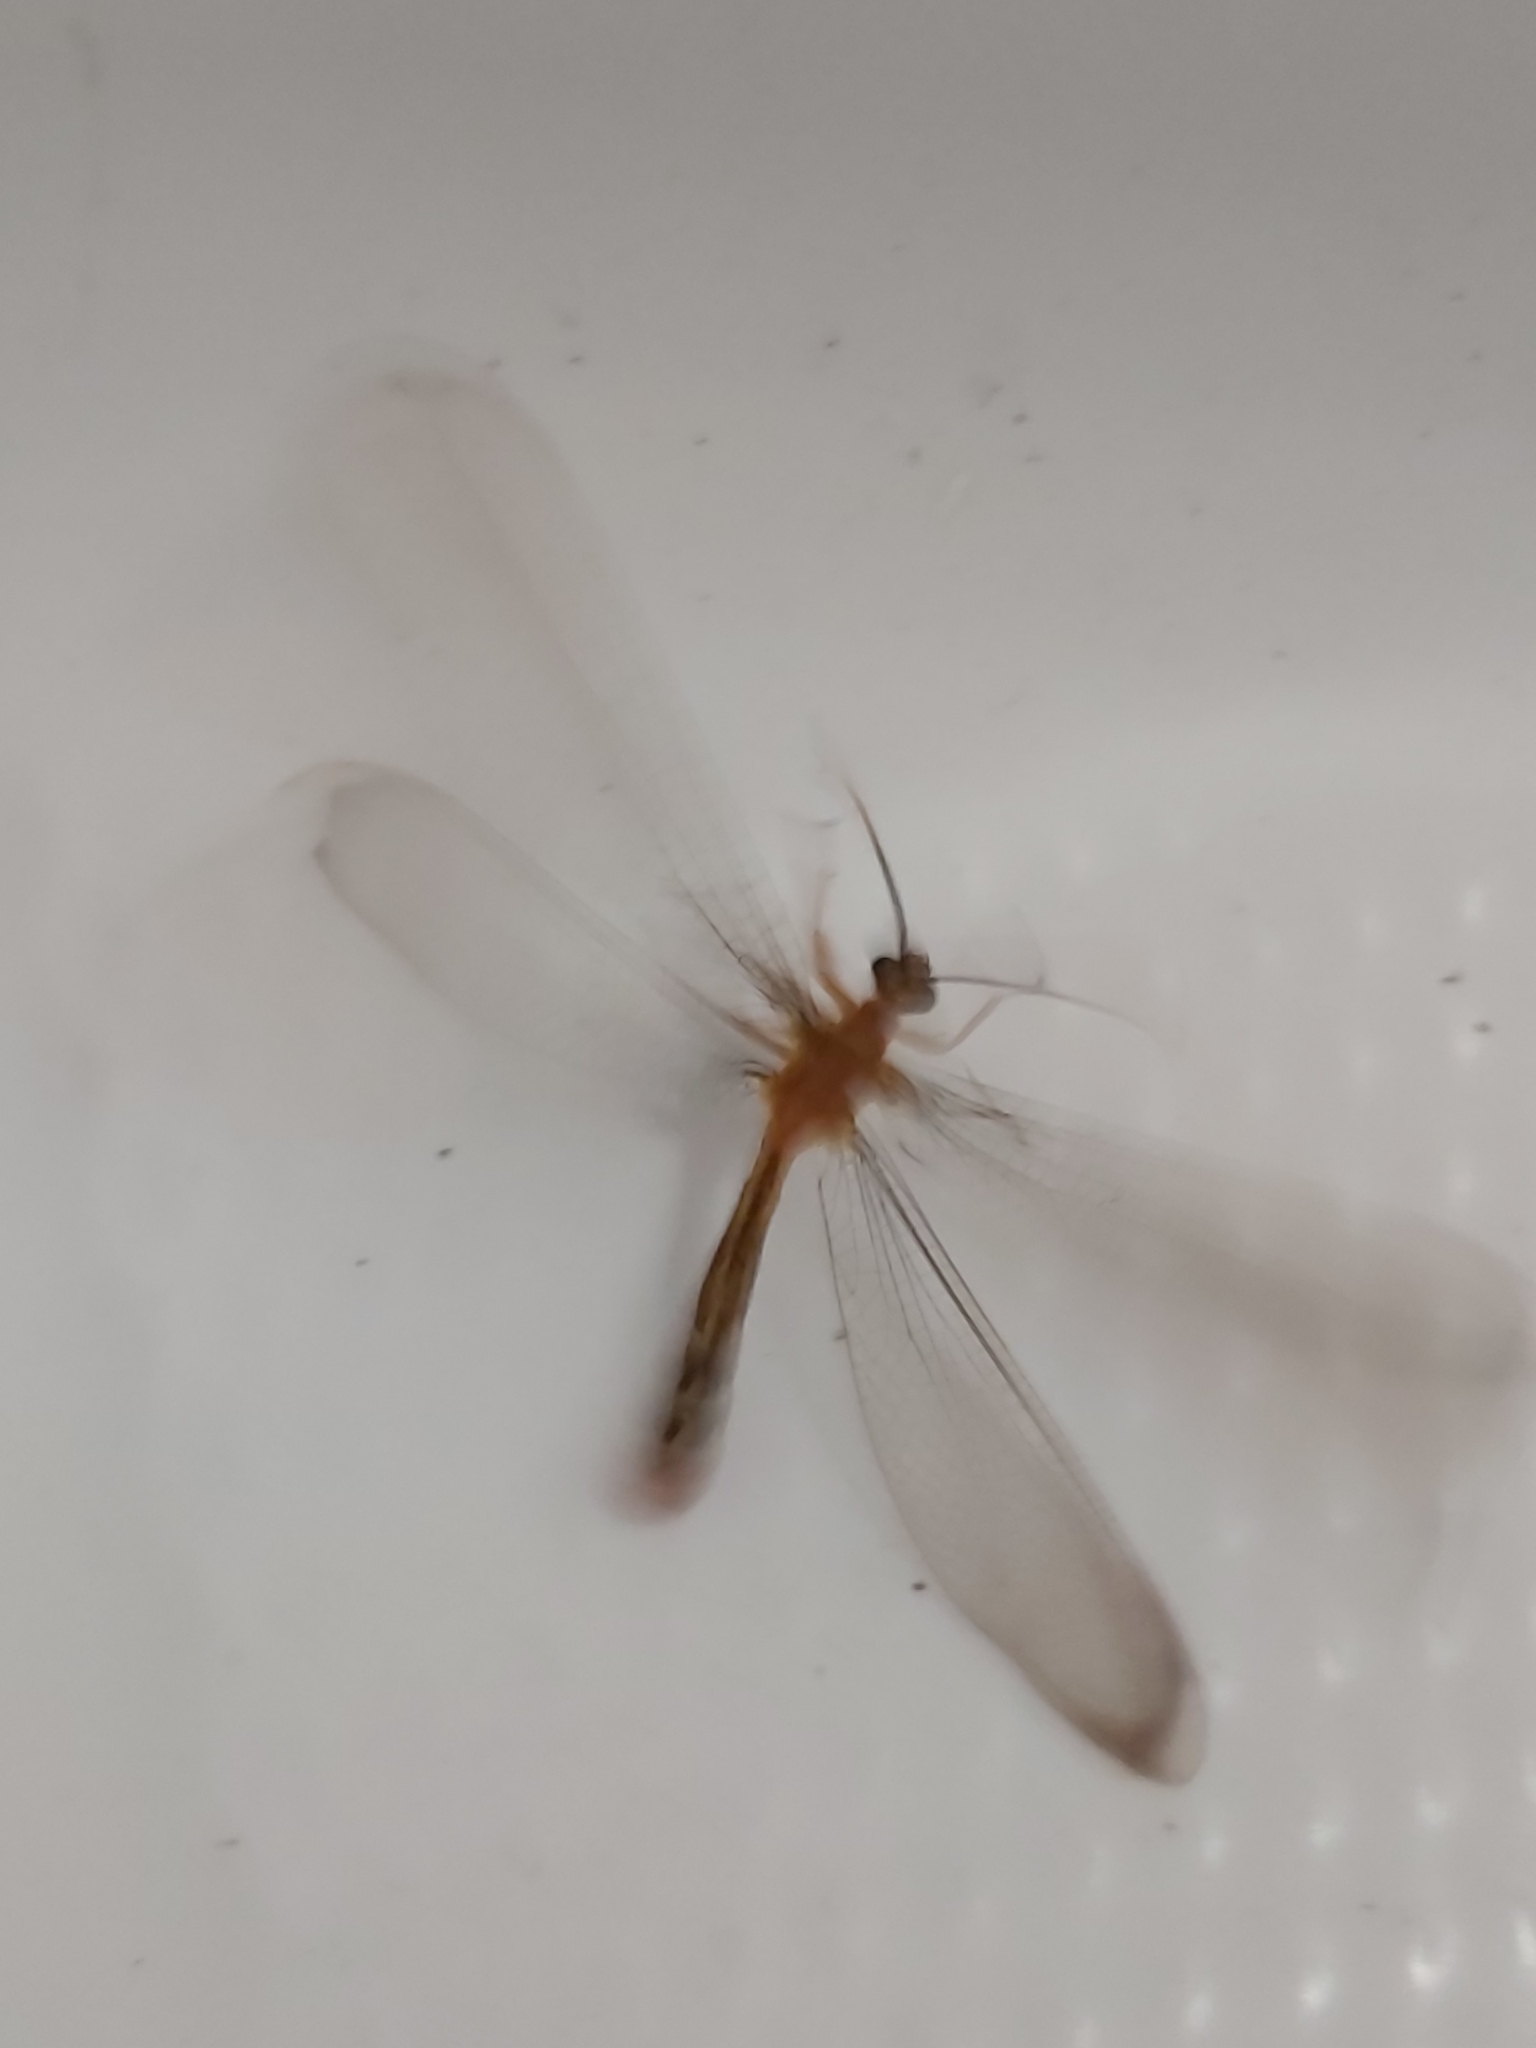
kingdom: Animalia
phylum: Arthropoda
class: Insecta
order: Neuroptera
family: Nymphidae
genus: Nymphes
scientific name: Nymphes myrmeleonoides
